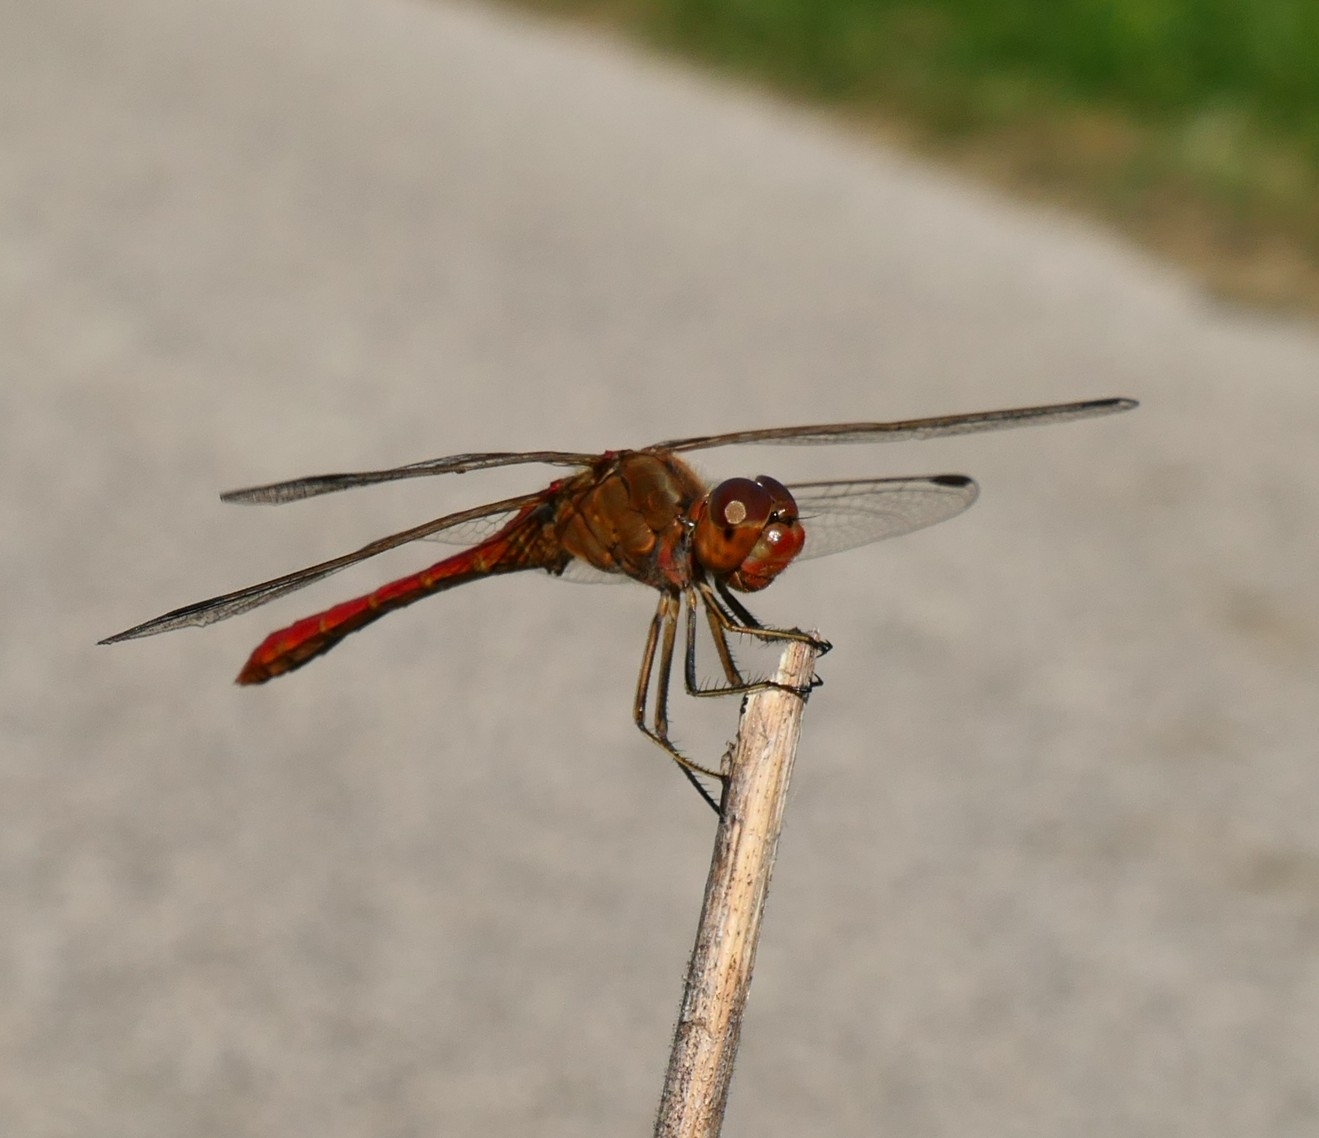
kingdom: Animalia
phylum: Arthropoda
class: Insecta
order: Odonata
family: Libellulidae
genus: Sympetrum
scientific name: Sympetrum meridionale
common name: Southern darter
